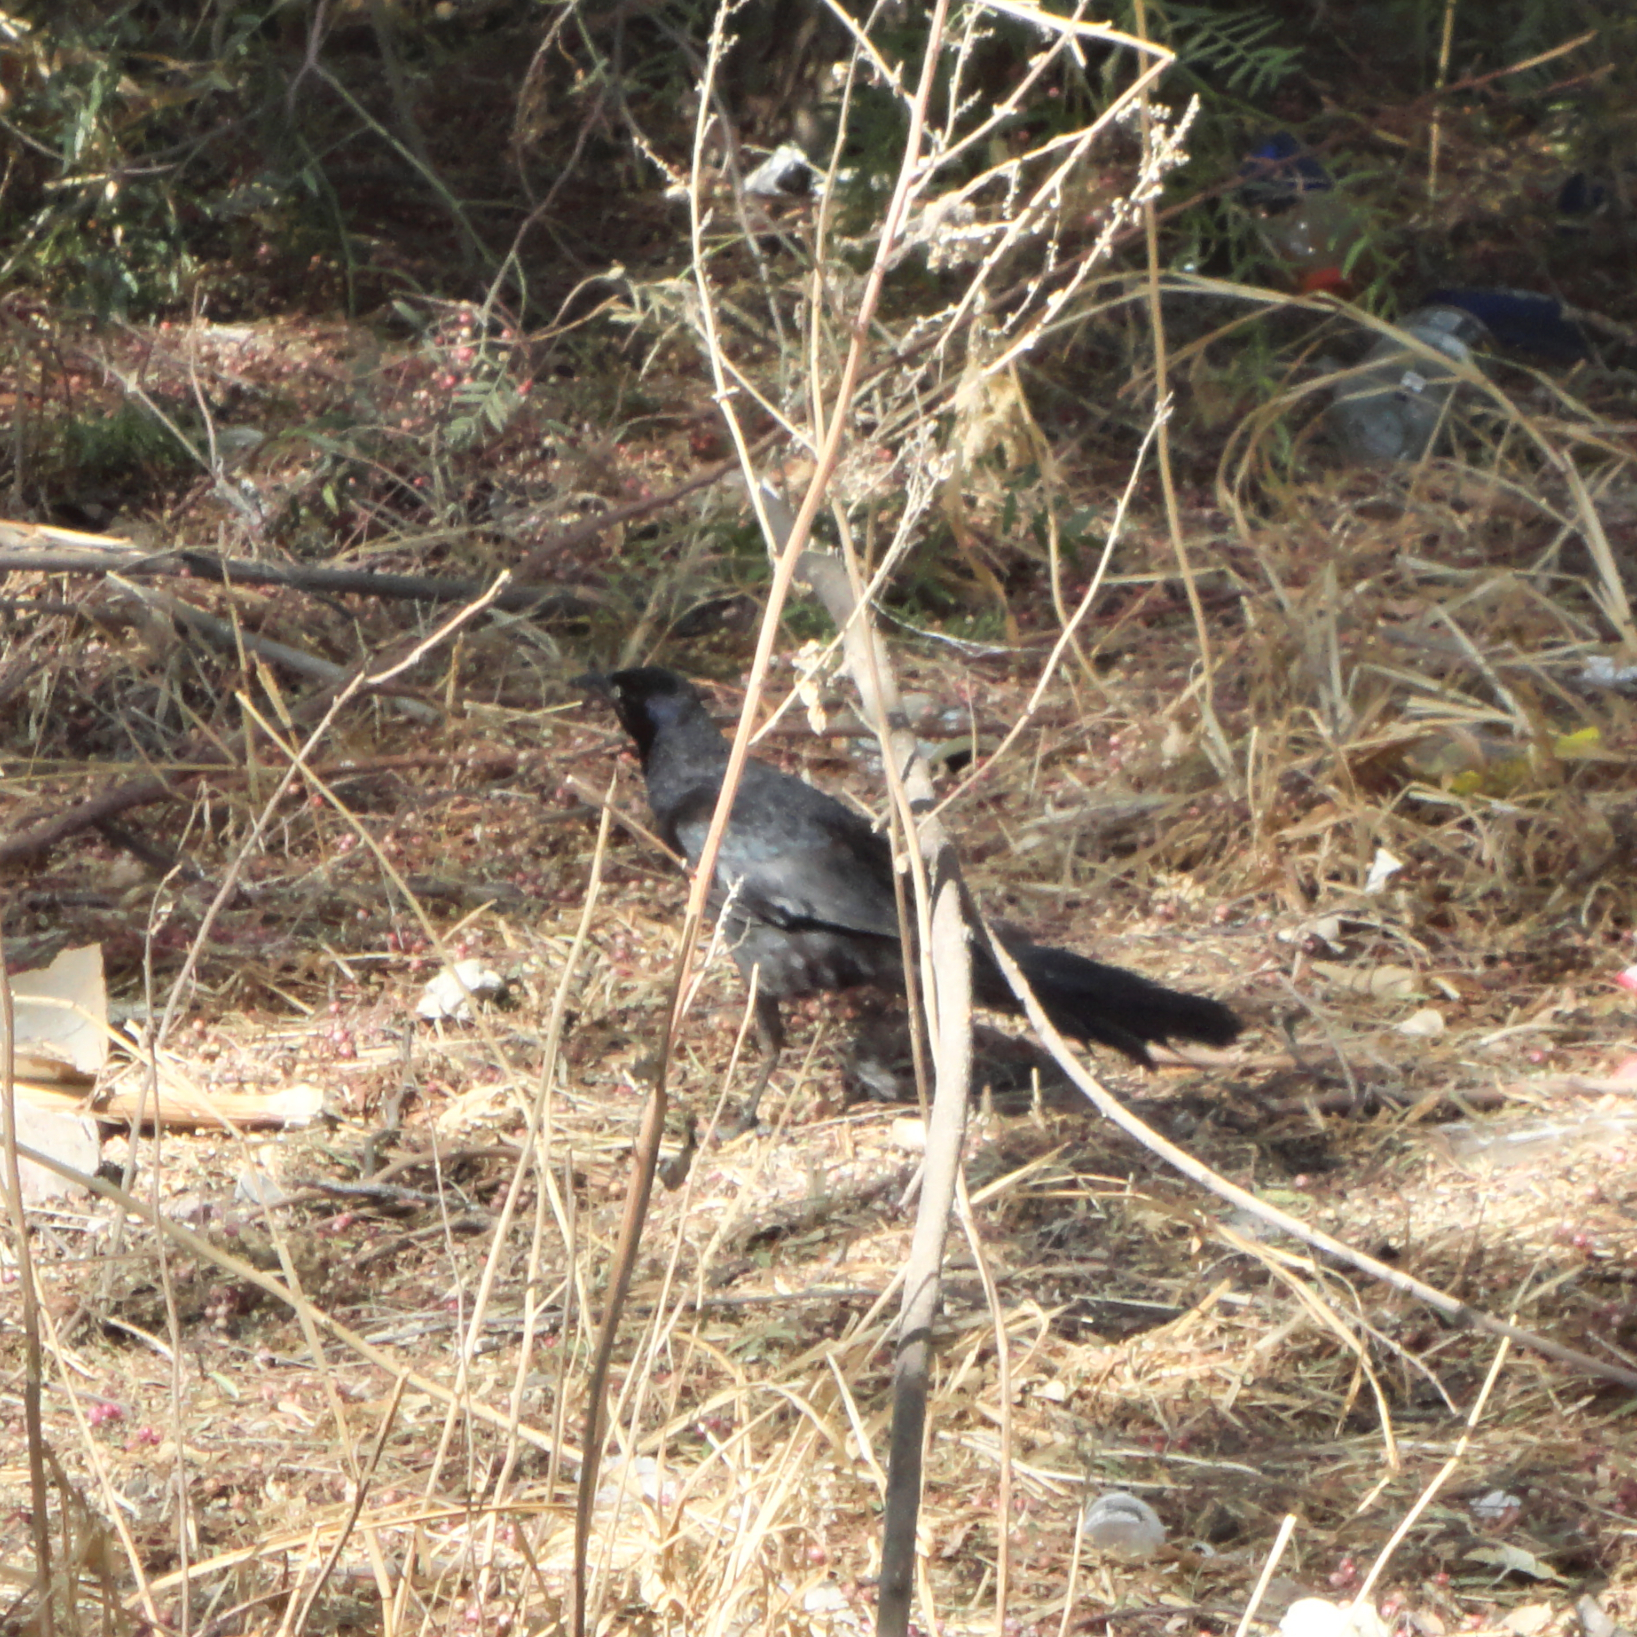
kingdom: Animalia
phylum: Chordata
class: Aves
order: Passeriformes
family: Icteridae
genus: Quiscalus
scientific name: Quiscalus mexicanus
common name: Great-tailed grackle
